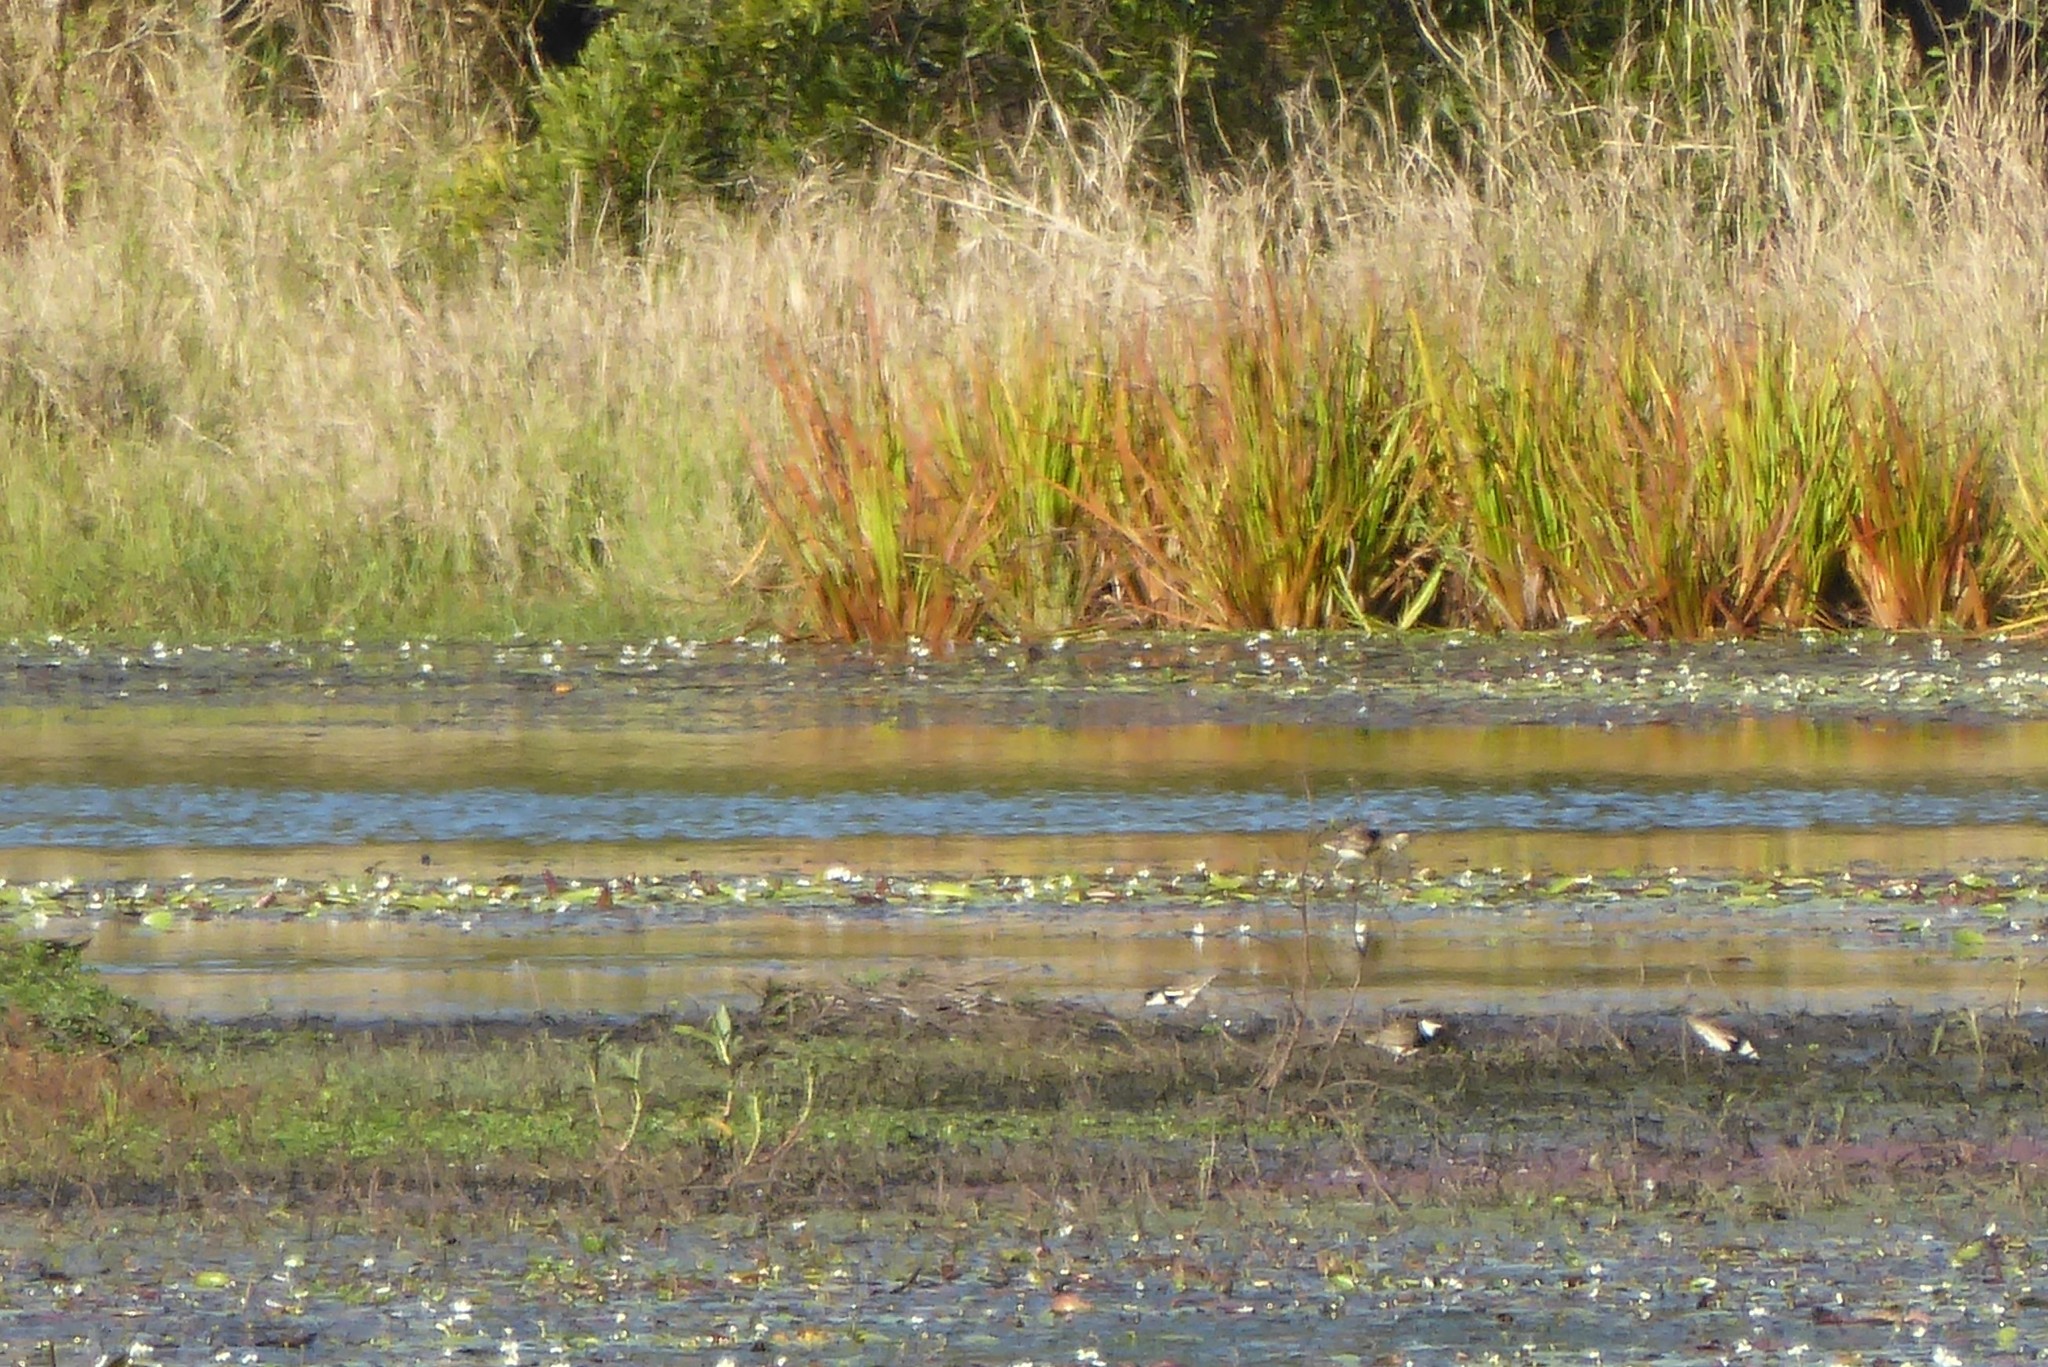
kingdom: Animalia
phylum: Chordata
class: Aves
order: Charadriiformes
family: Charadriidae
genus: Erythrogonys
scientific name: Erythrogonys cinctus
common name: Red-kneed dotterel
